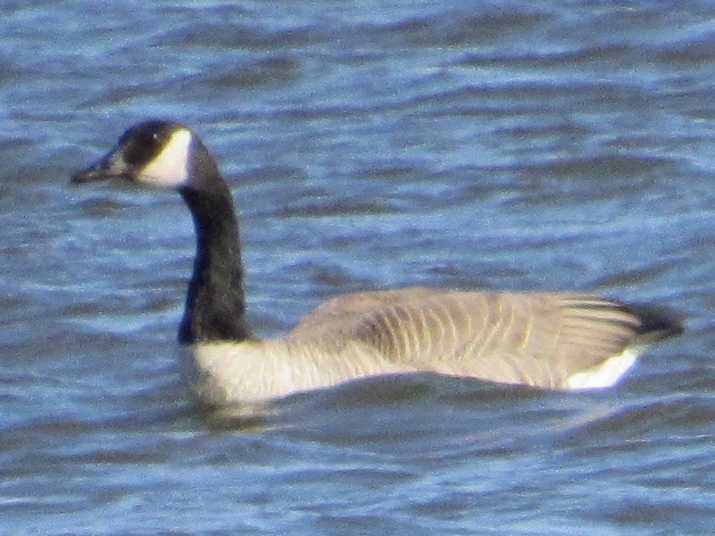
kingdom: Animalia
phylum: Chordata
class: Aves
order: Anseriformes
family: Anatidae
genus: Branta
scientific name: Branta canadensis
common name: Canada goose
